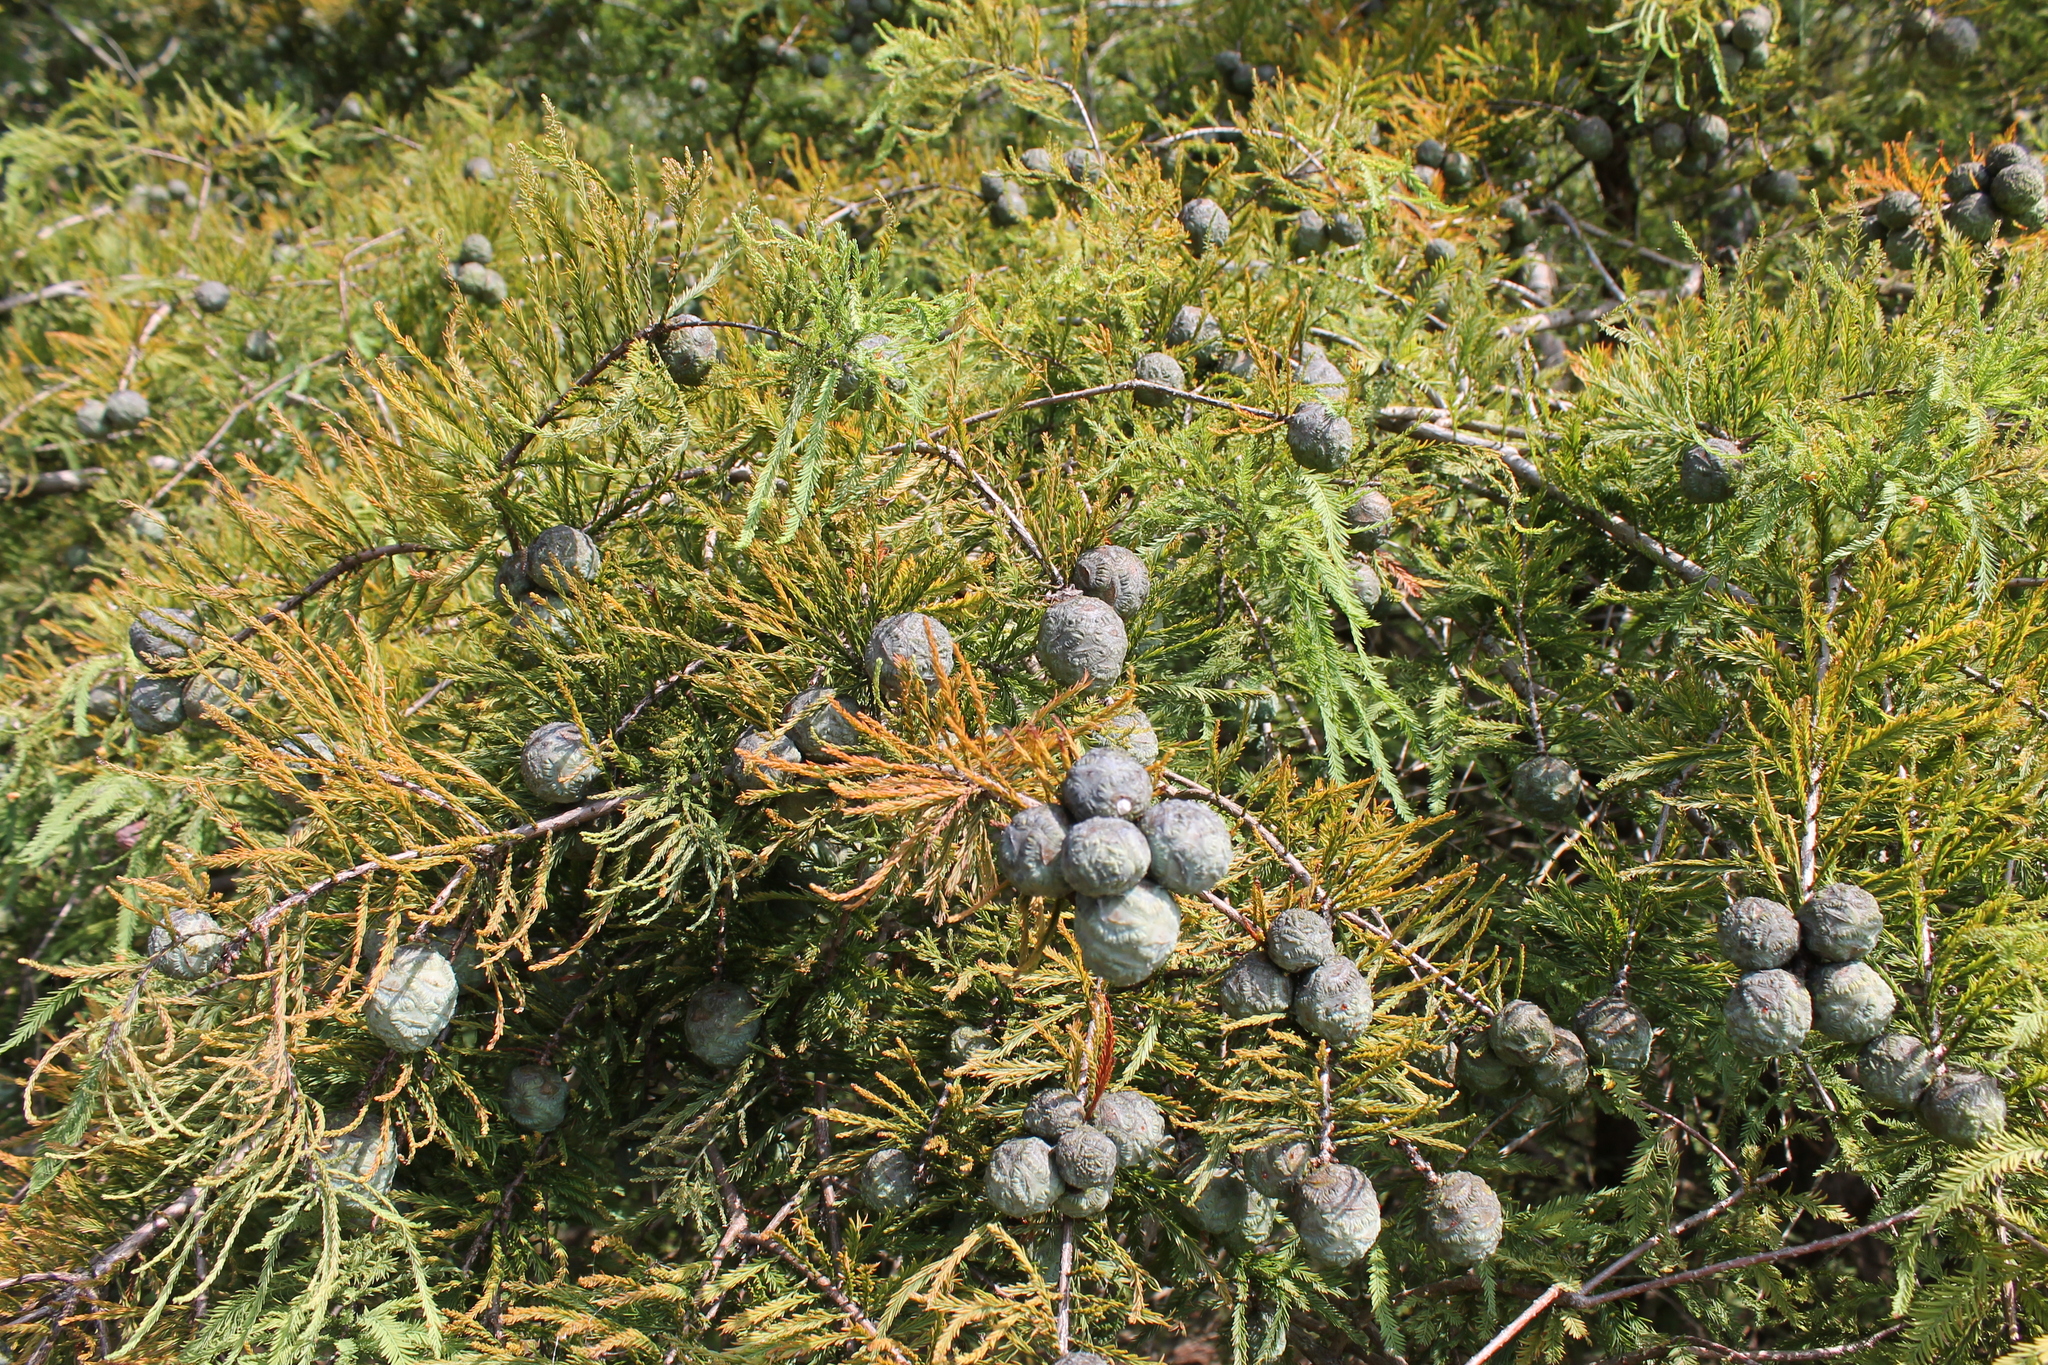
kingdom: Plantae
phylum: Tracheophyta
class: Pinopsida
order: Pinales
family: Cupressaceae
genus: Taxodium
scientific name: Taxodium distichum
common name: Bald cypress
